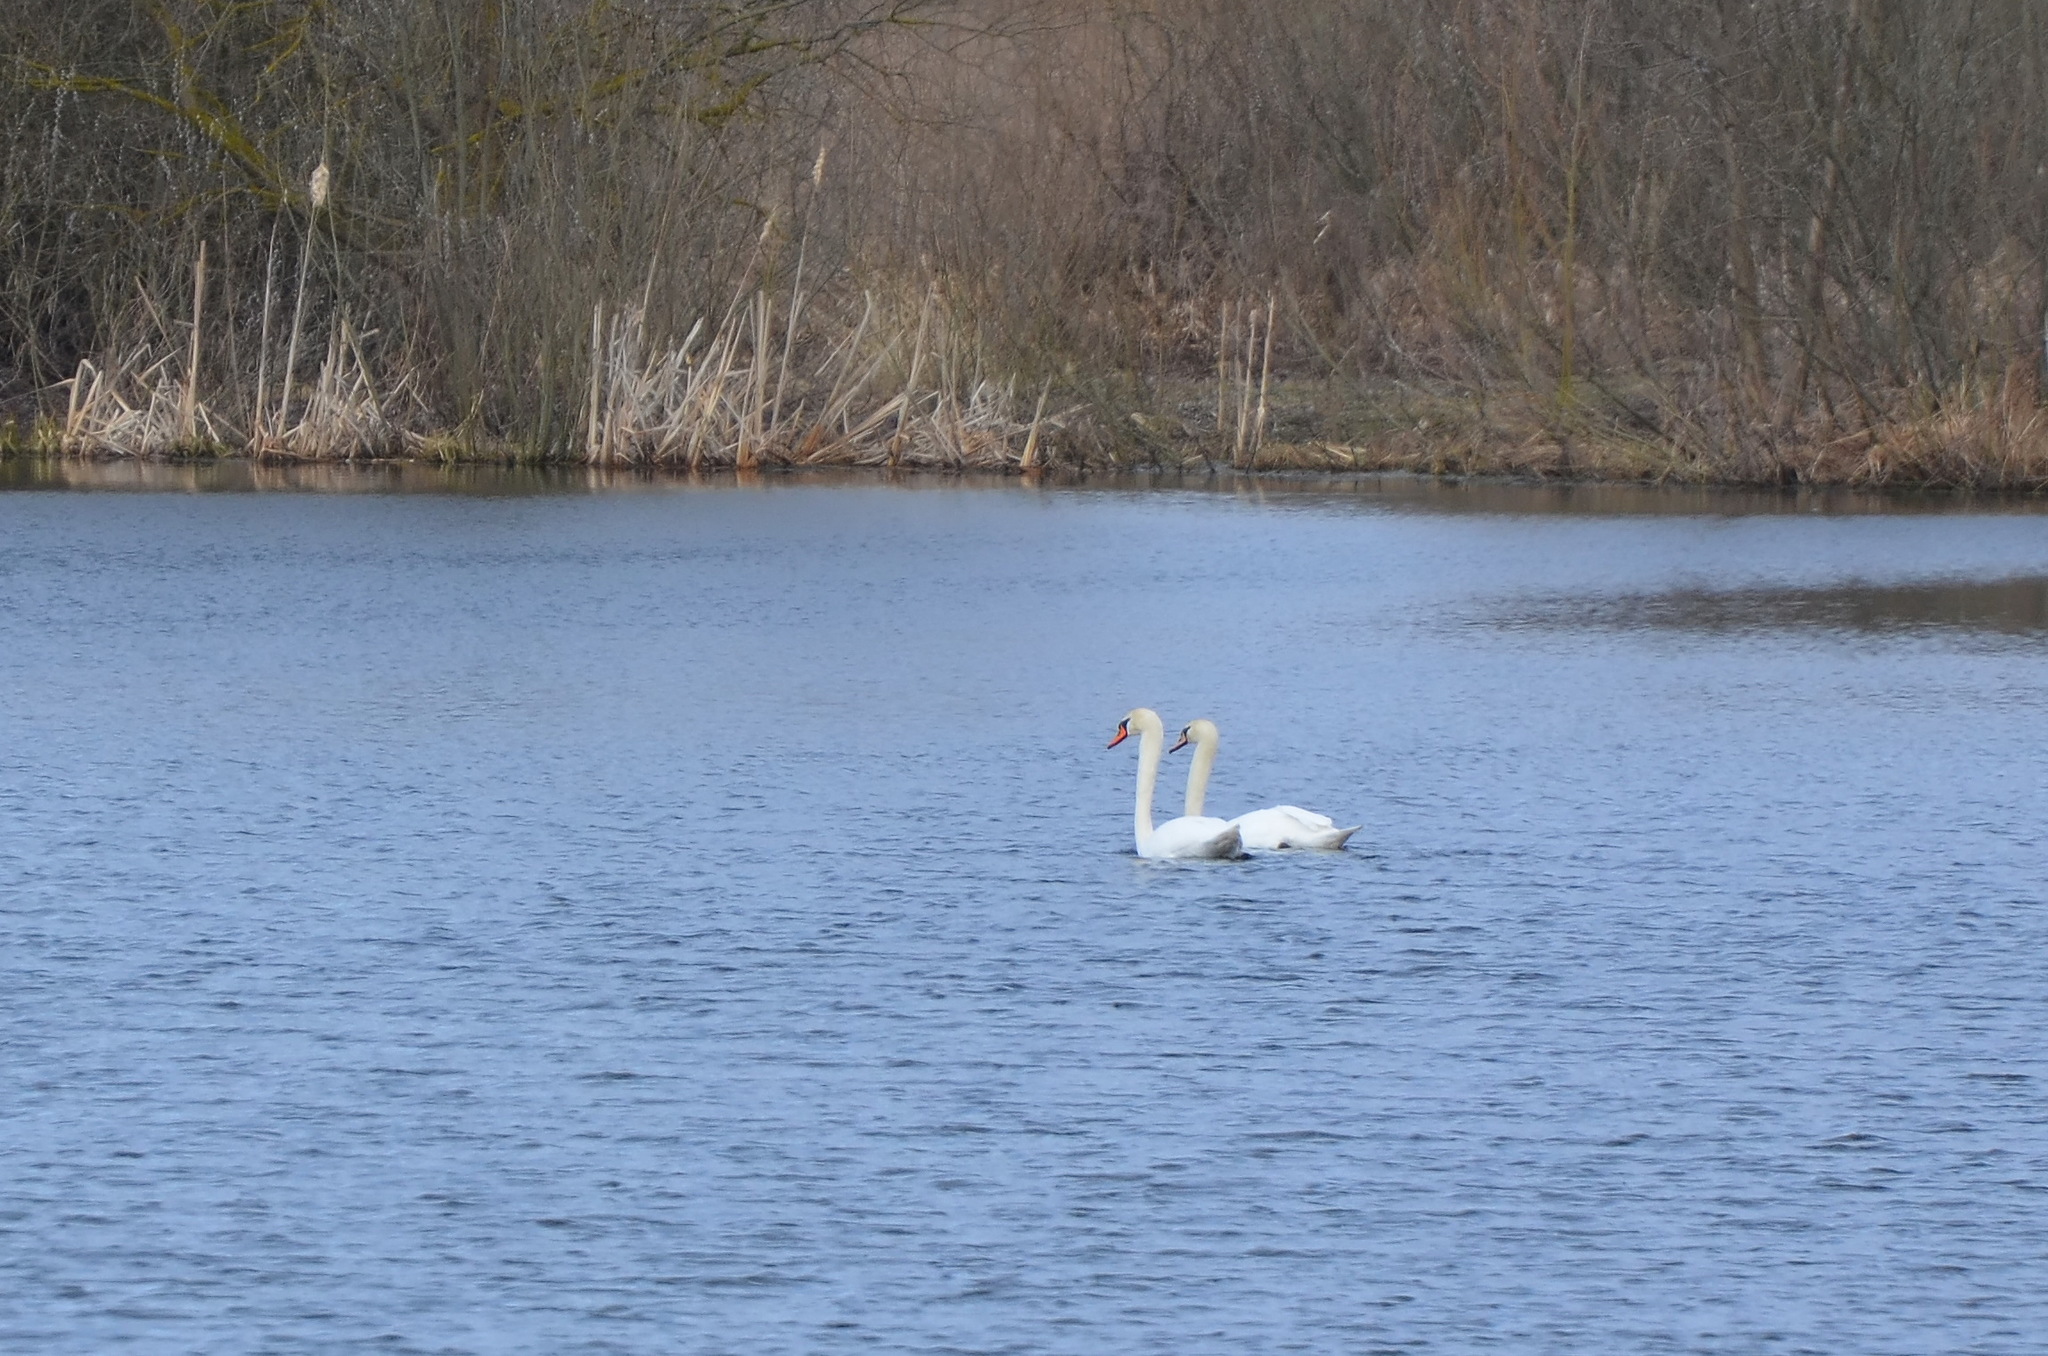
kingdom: Animalia
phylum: Chordata
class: Aves
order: Anseriformes
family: Anatidae
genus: Cygnus
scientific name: Cygnus olor
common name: Mute swan
